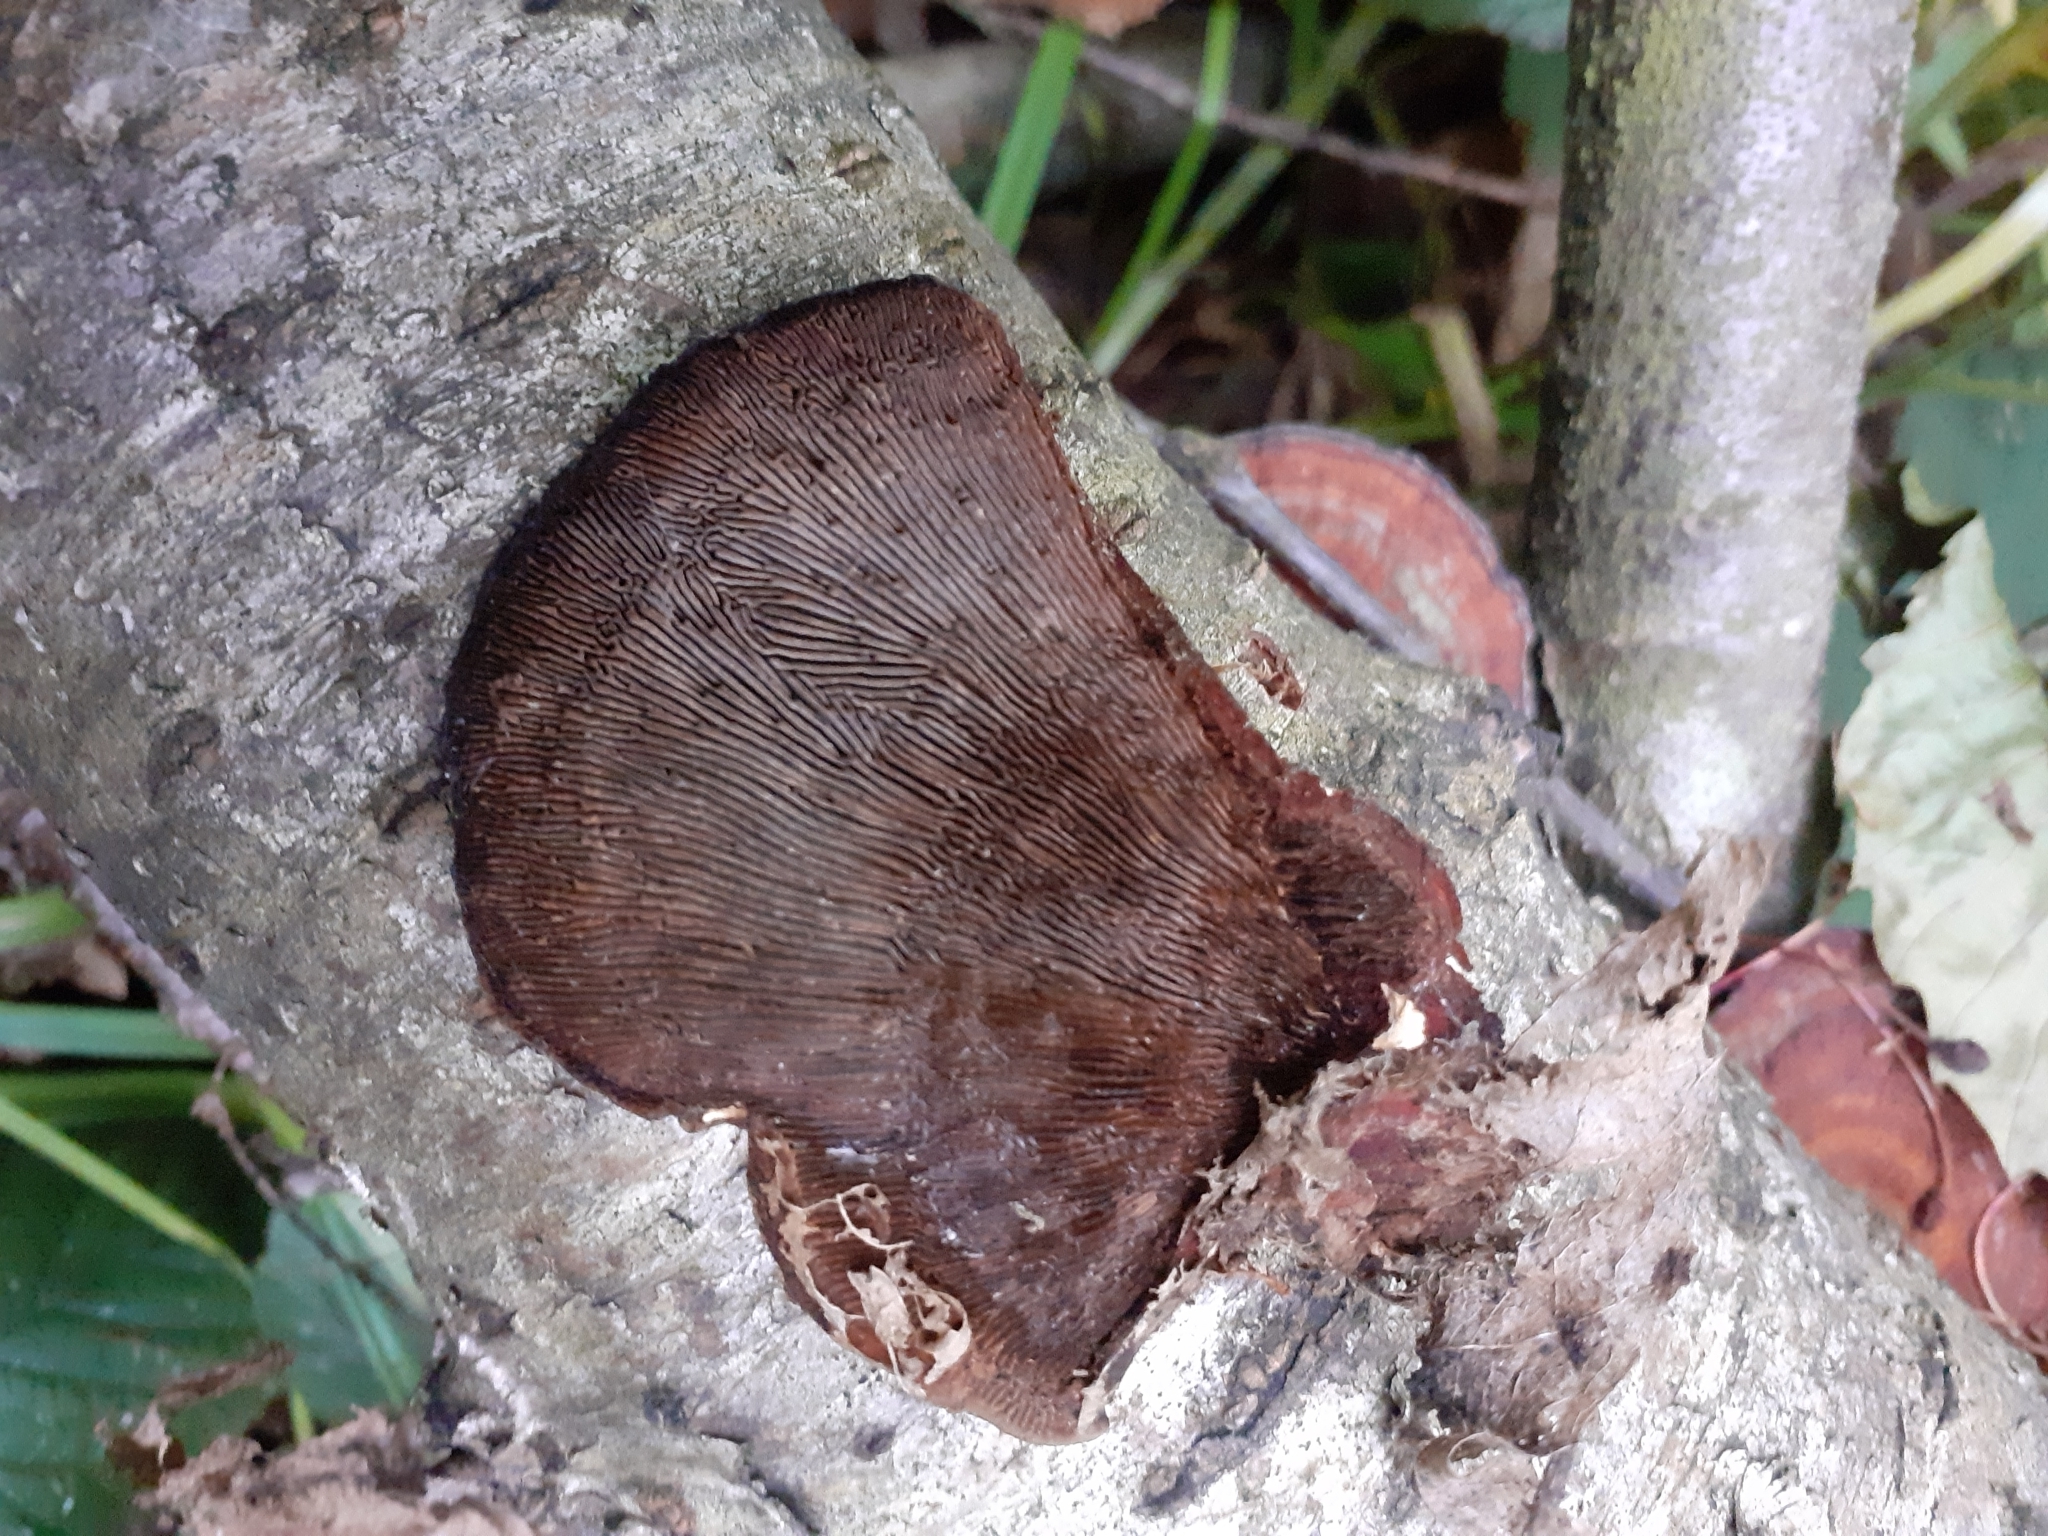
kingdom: Fungi
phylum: Basidiomycota
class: Agaricomycetes
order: Polyporales
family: Polyporaceae
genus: Daedaleopsis
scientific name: Daedaleopsis tricolor
